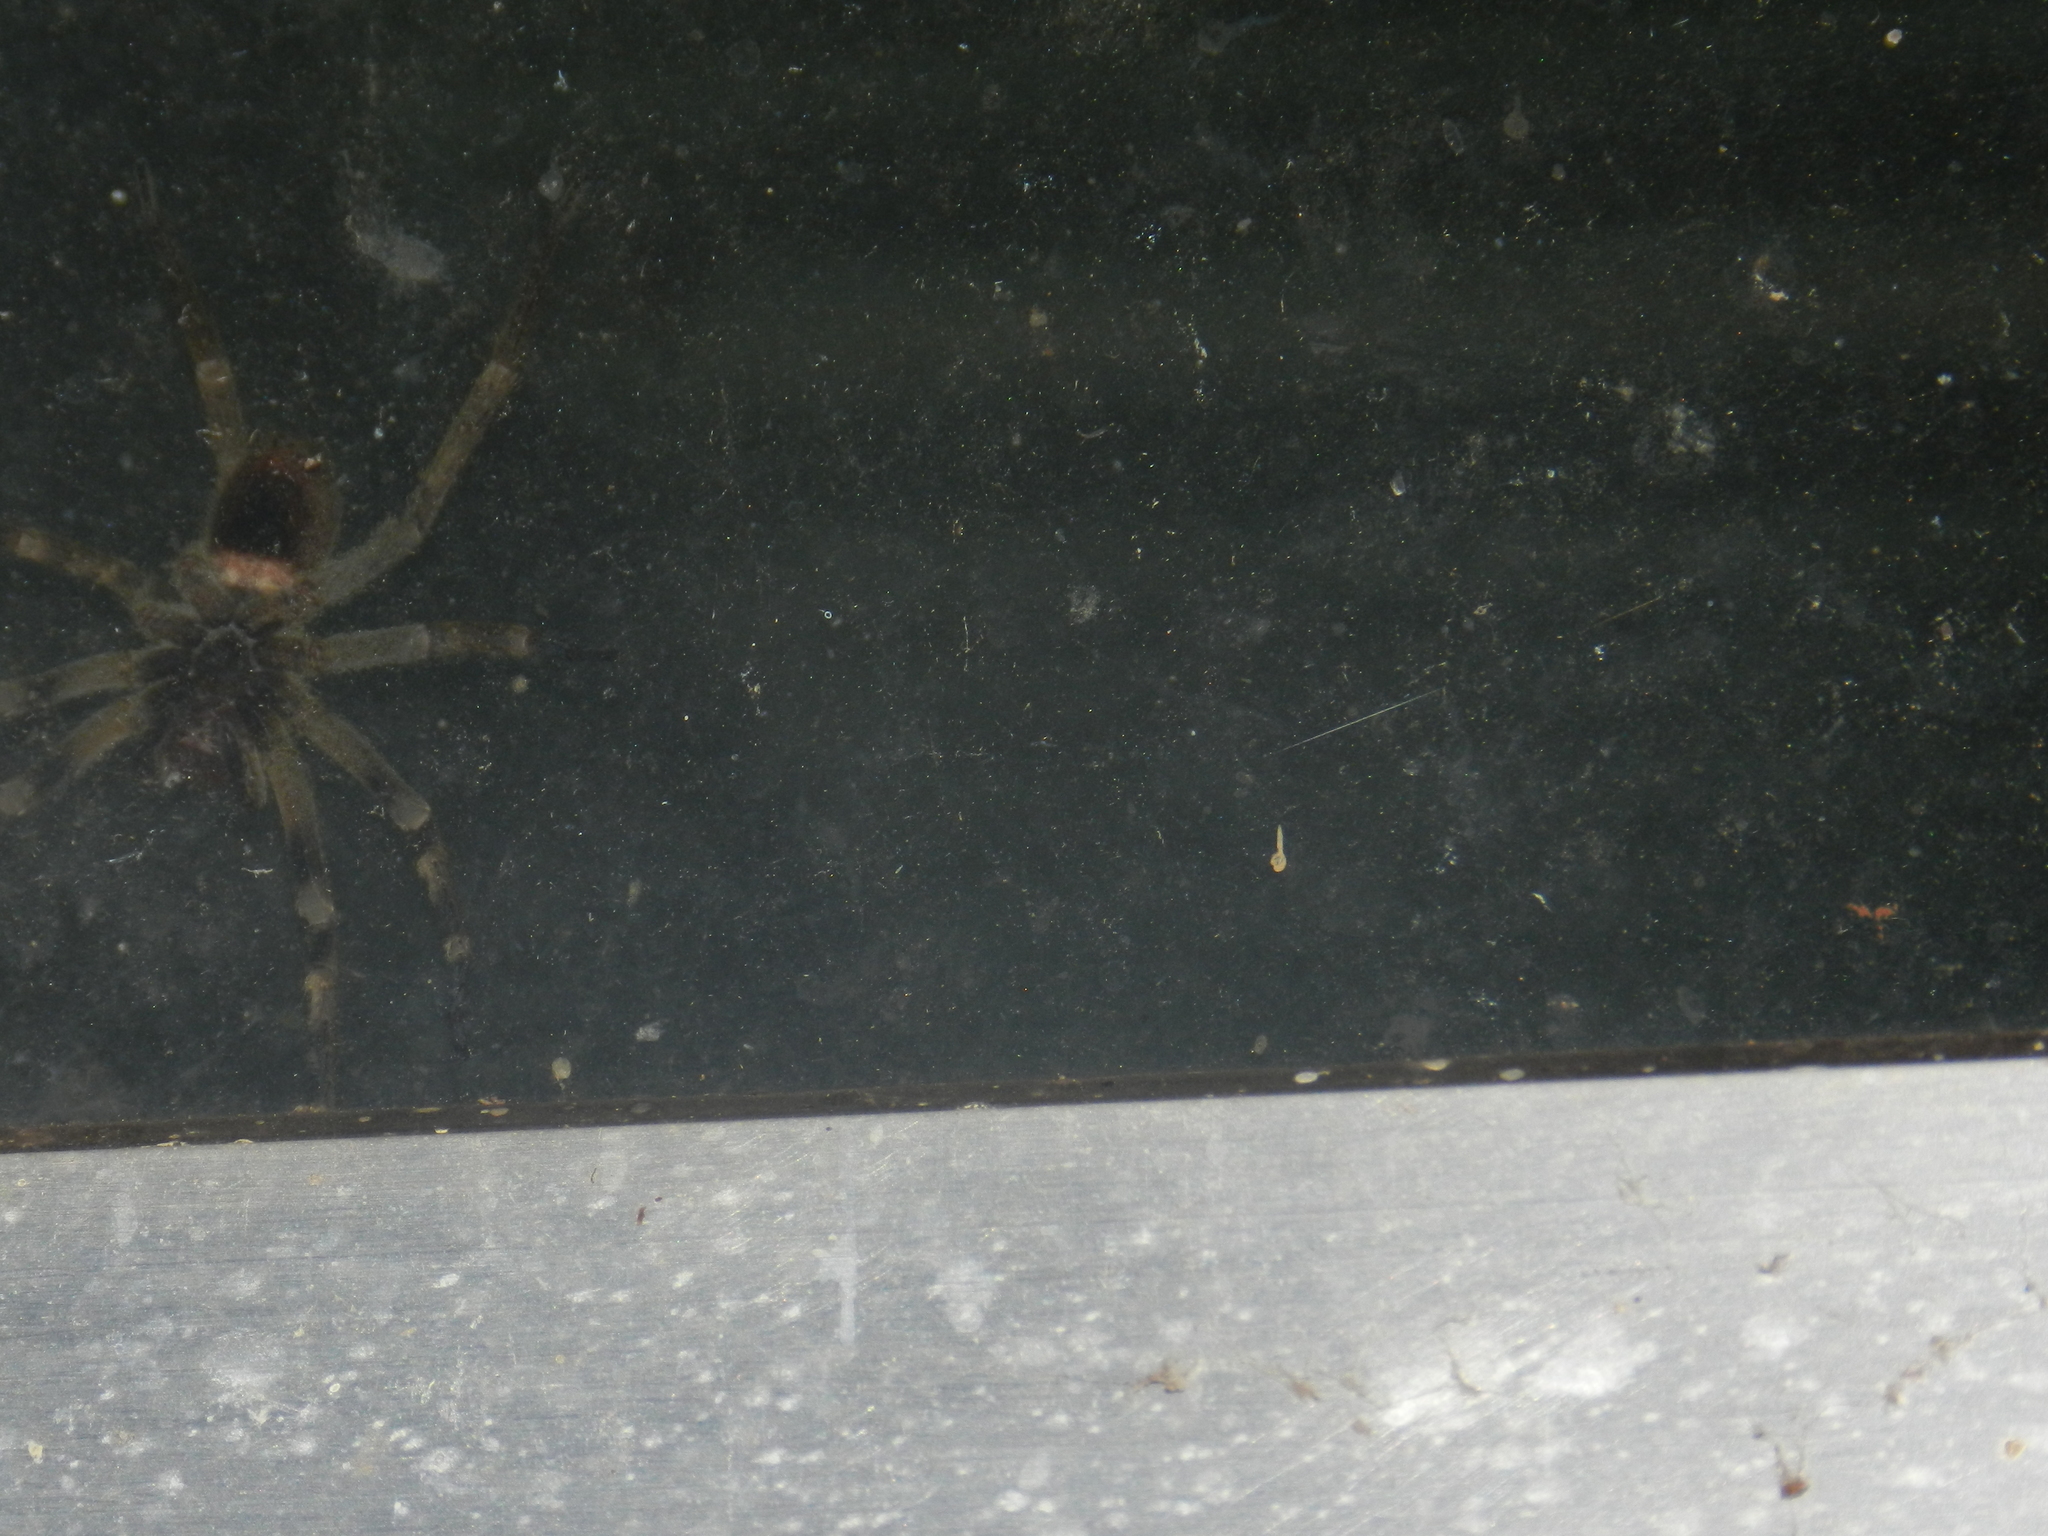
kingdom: Animalia
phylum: Arthropoda
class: Arachnida
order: Araneae
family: Ctenidae
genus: Phoneutria
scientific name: Phoneutria nigriventer
